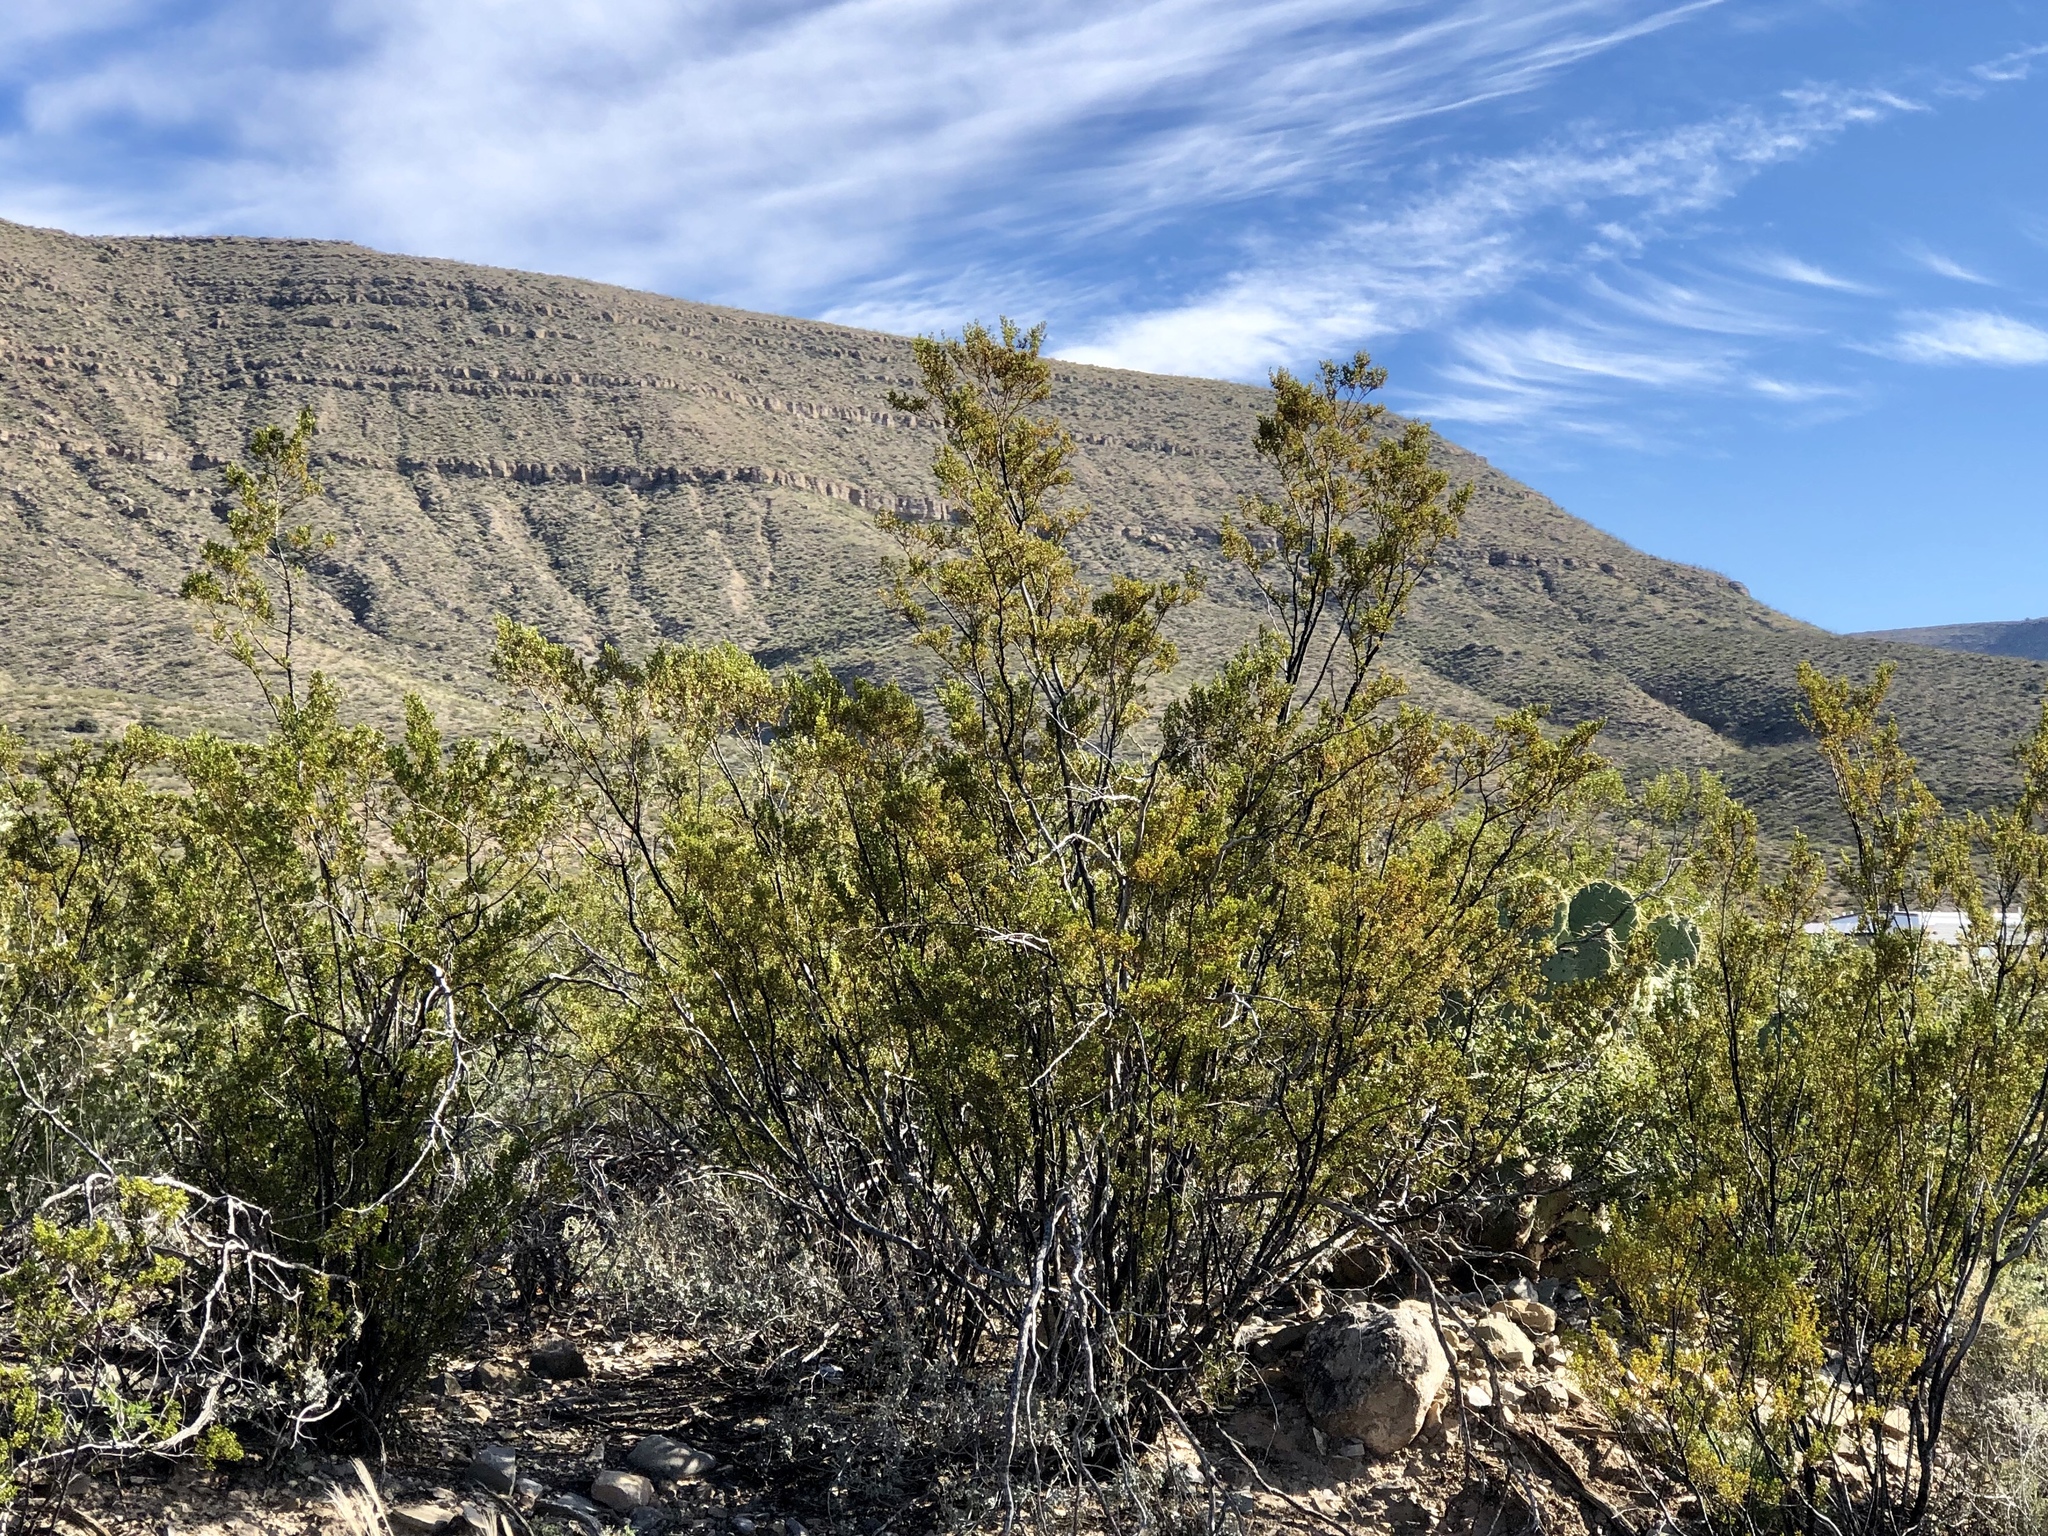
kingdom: Plantae
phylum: Tracheophyta
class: Magnoliopsida
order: Zygophyllales
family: Zygophyllaceae
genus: Larrea
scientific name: Larrea tridentata
